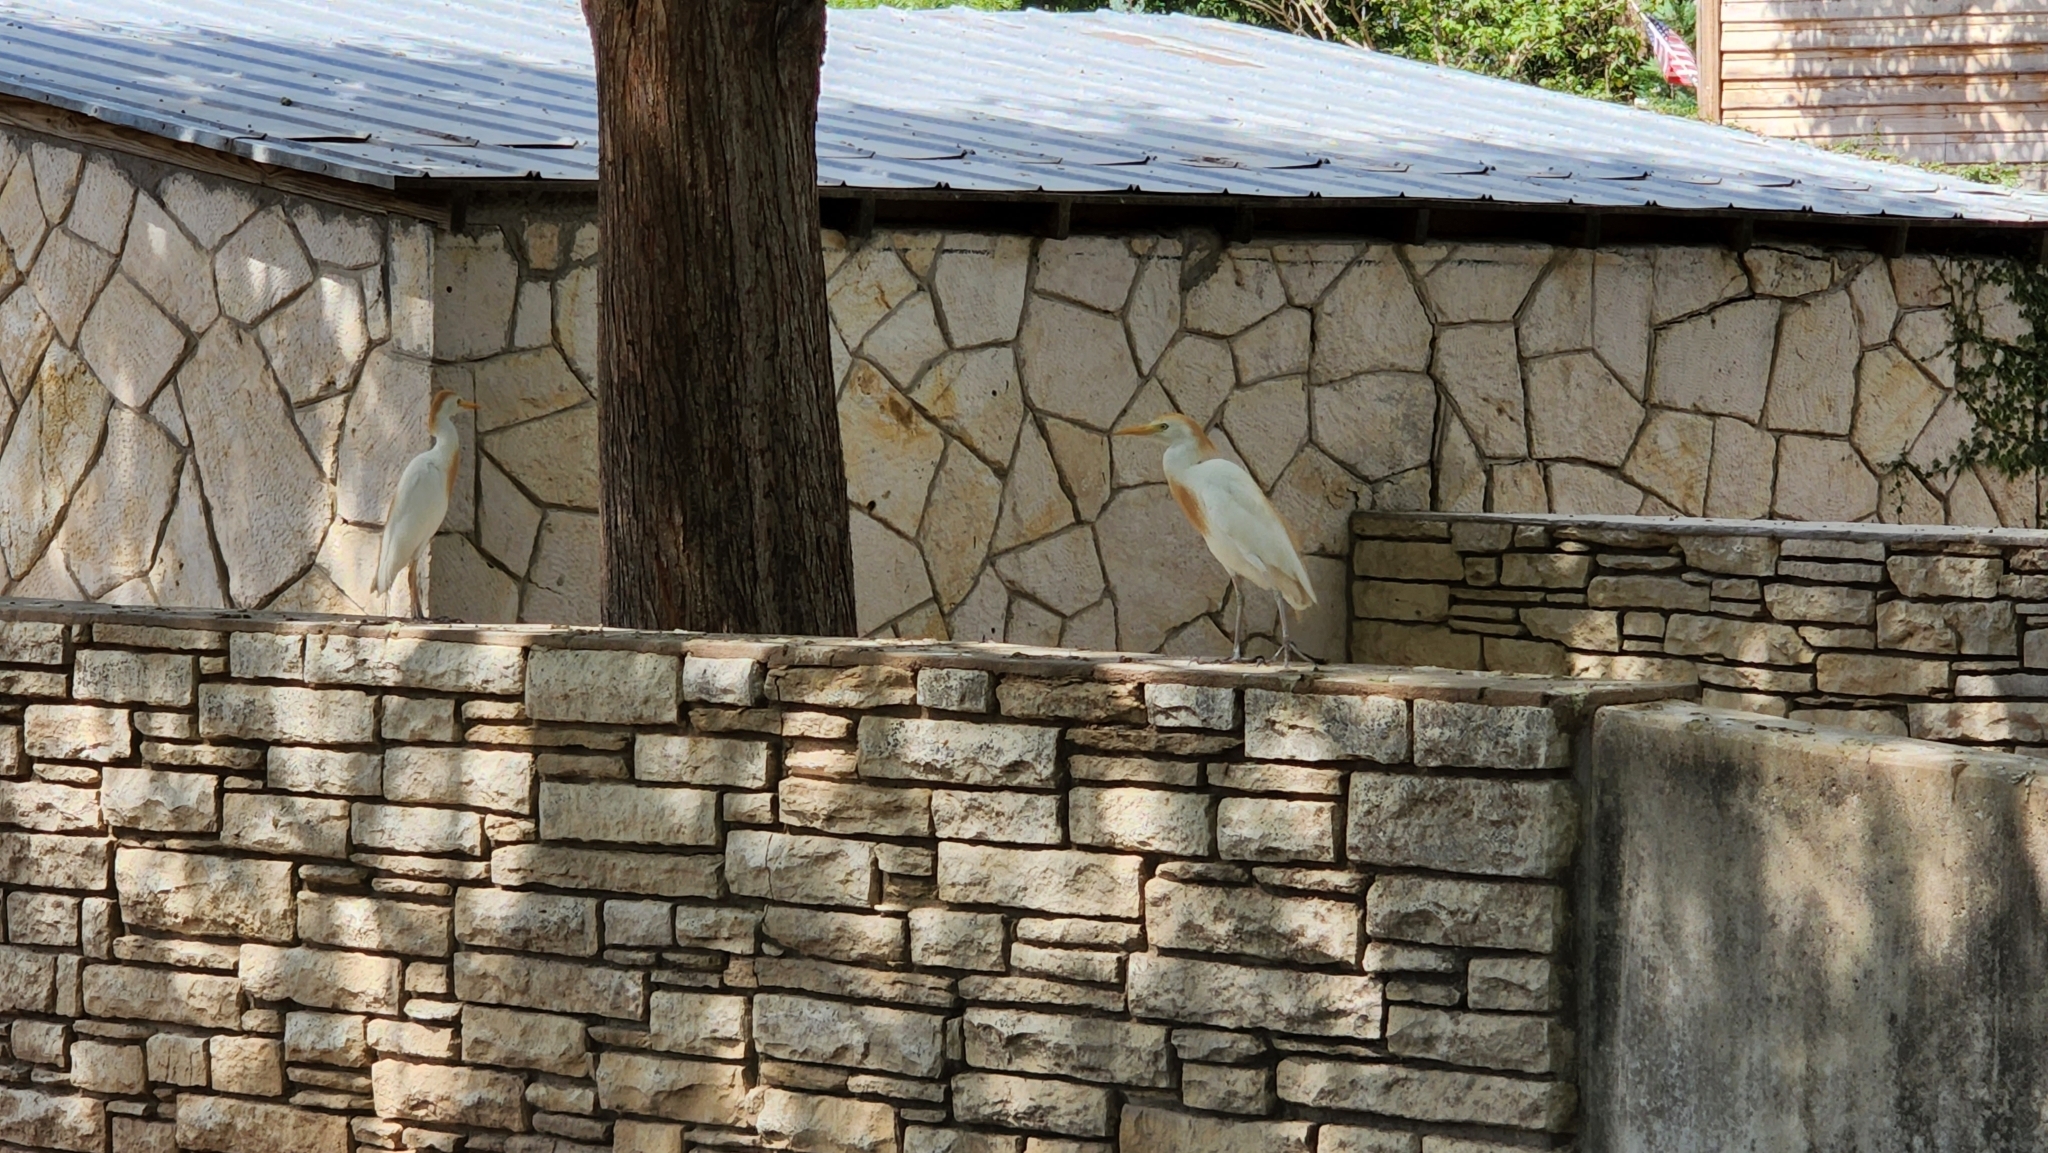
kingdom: Animalia
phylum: Chordata
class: Aves
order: Pelecaniformes
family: Ardeidae
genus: Bubulcus
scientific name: Bubulcus ibis
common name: Cattle egret
